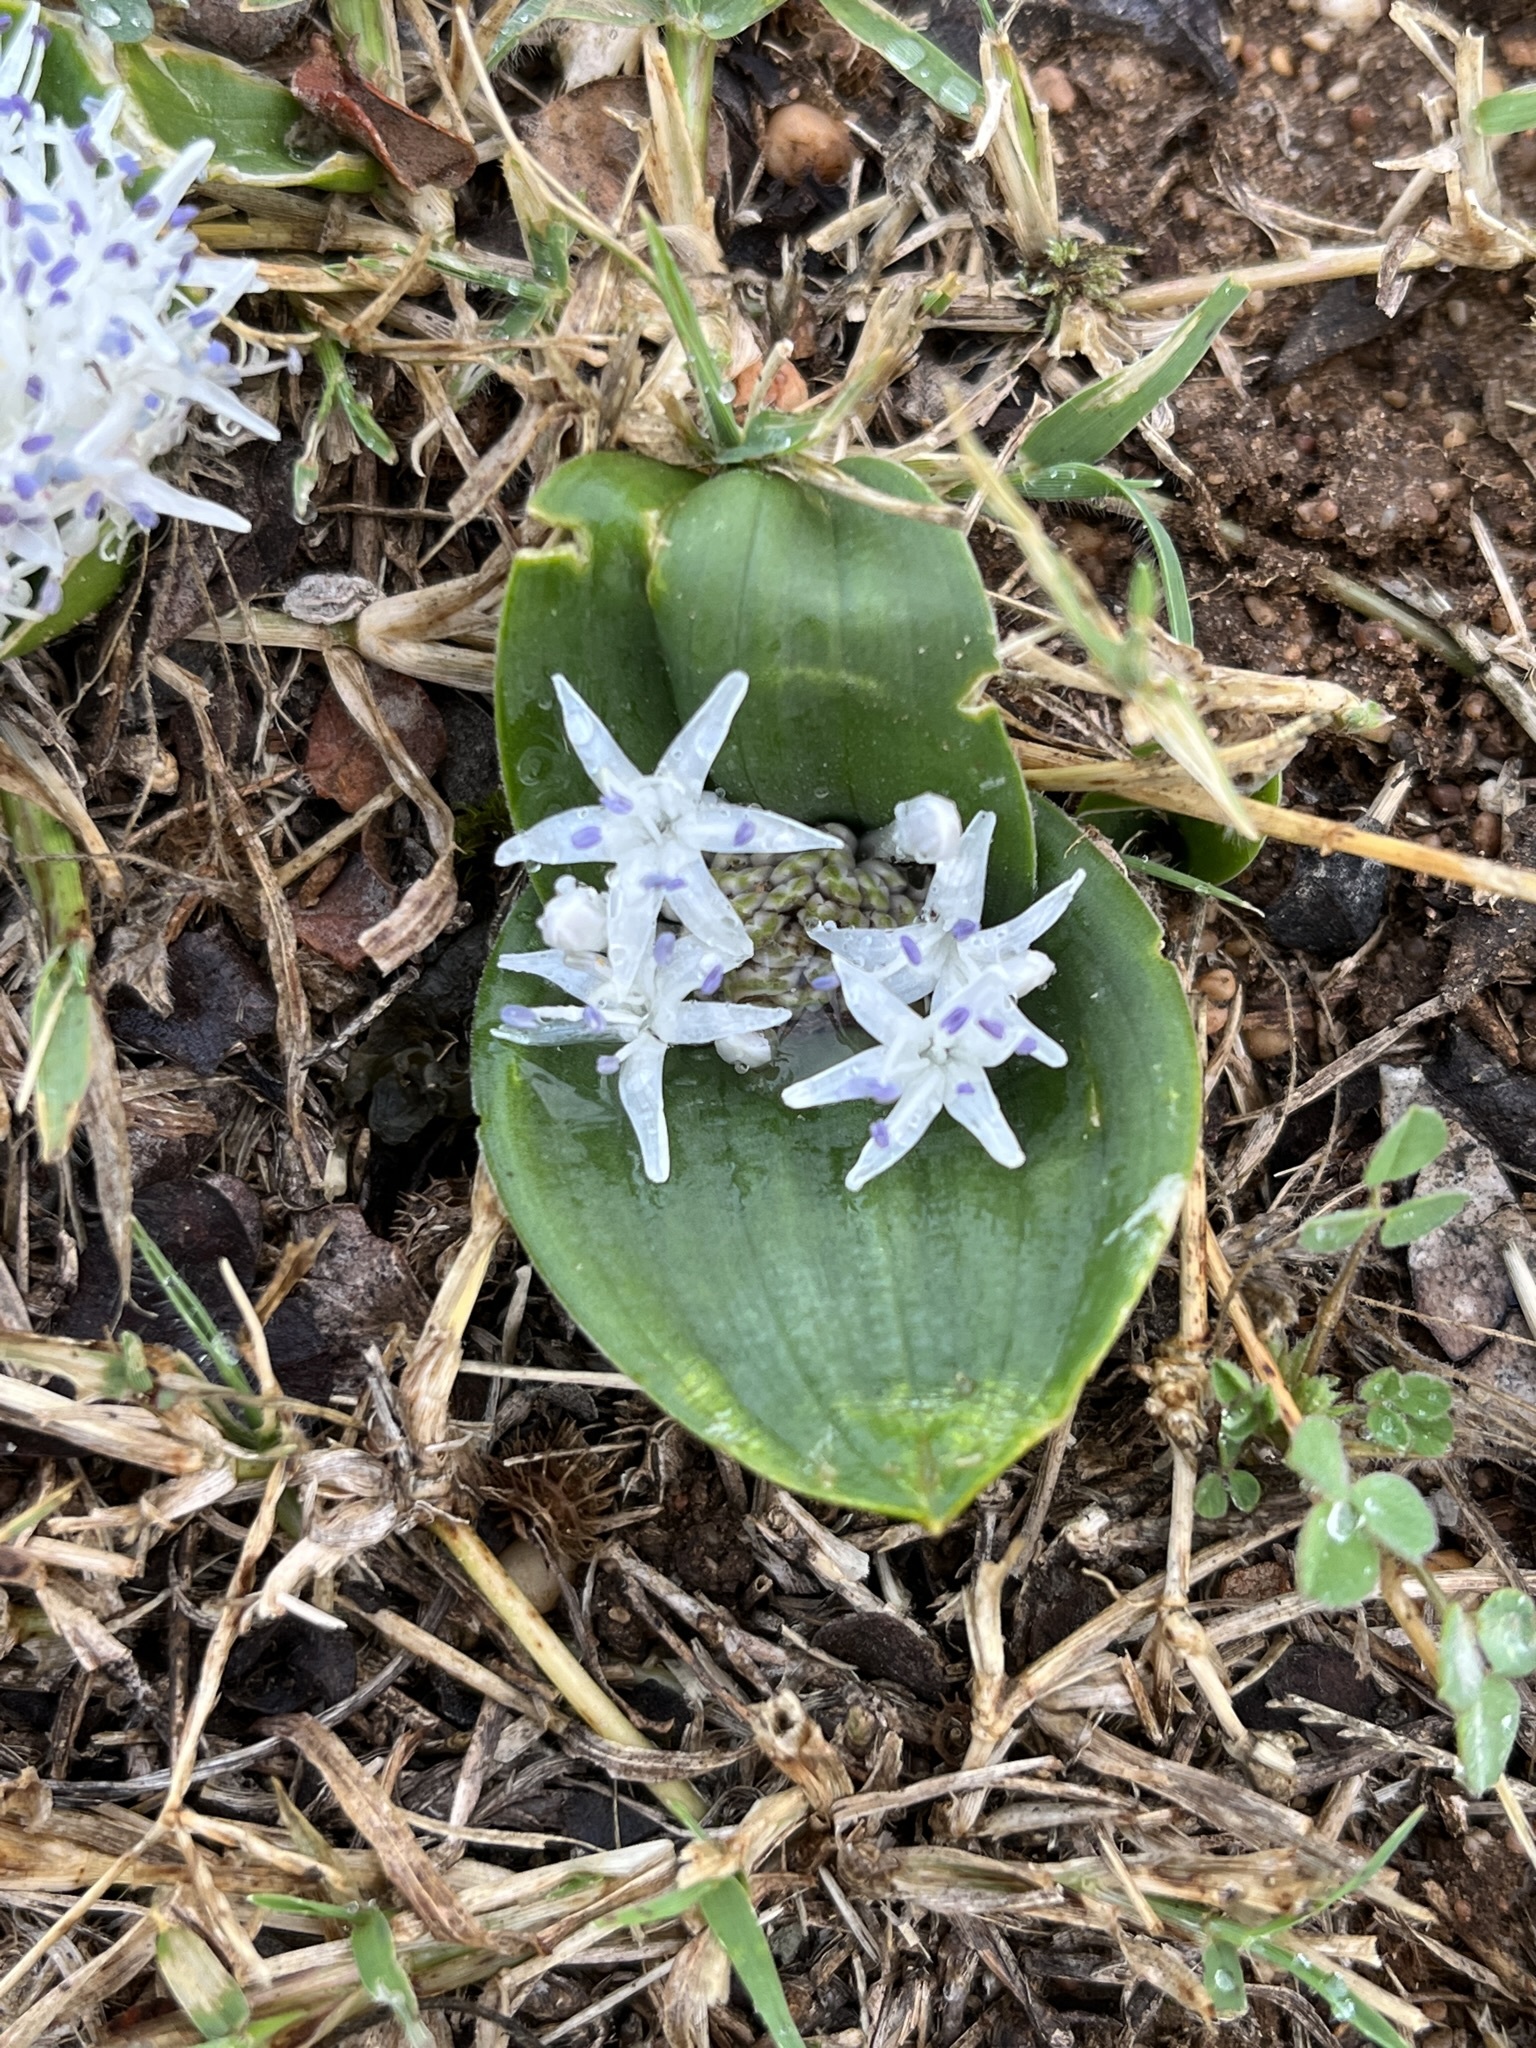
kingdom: Plantae
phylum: Tracheophyta
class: Liliopsida
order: Asparagales
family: Asparagaceae
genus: Lachenalia
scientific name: Lachenalia ensifolia
